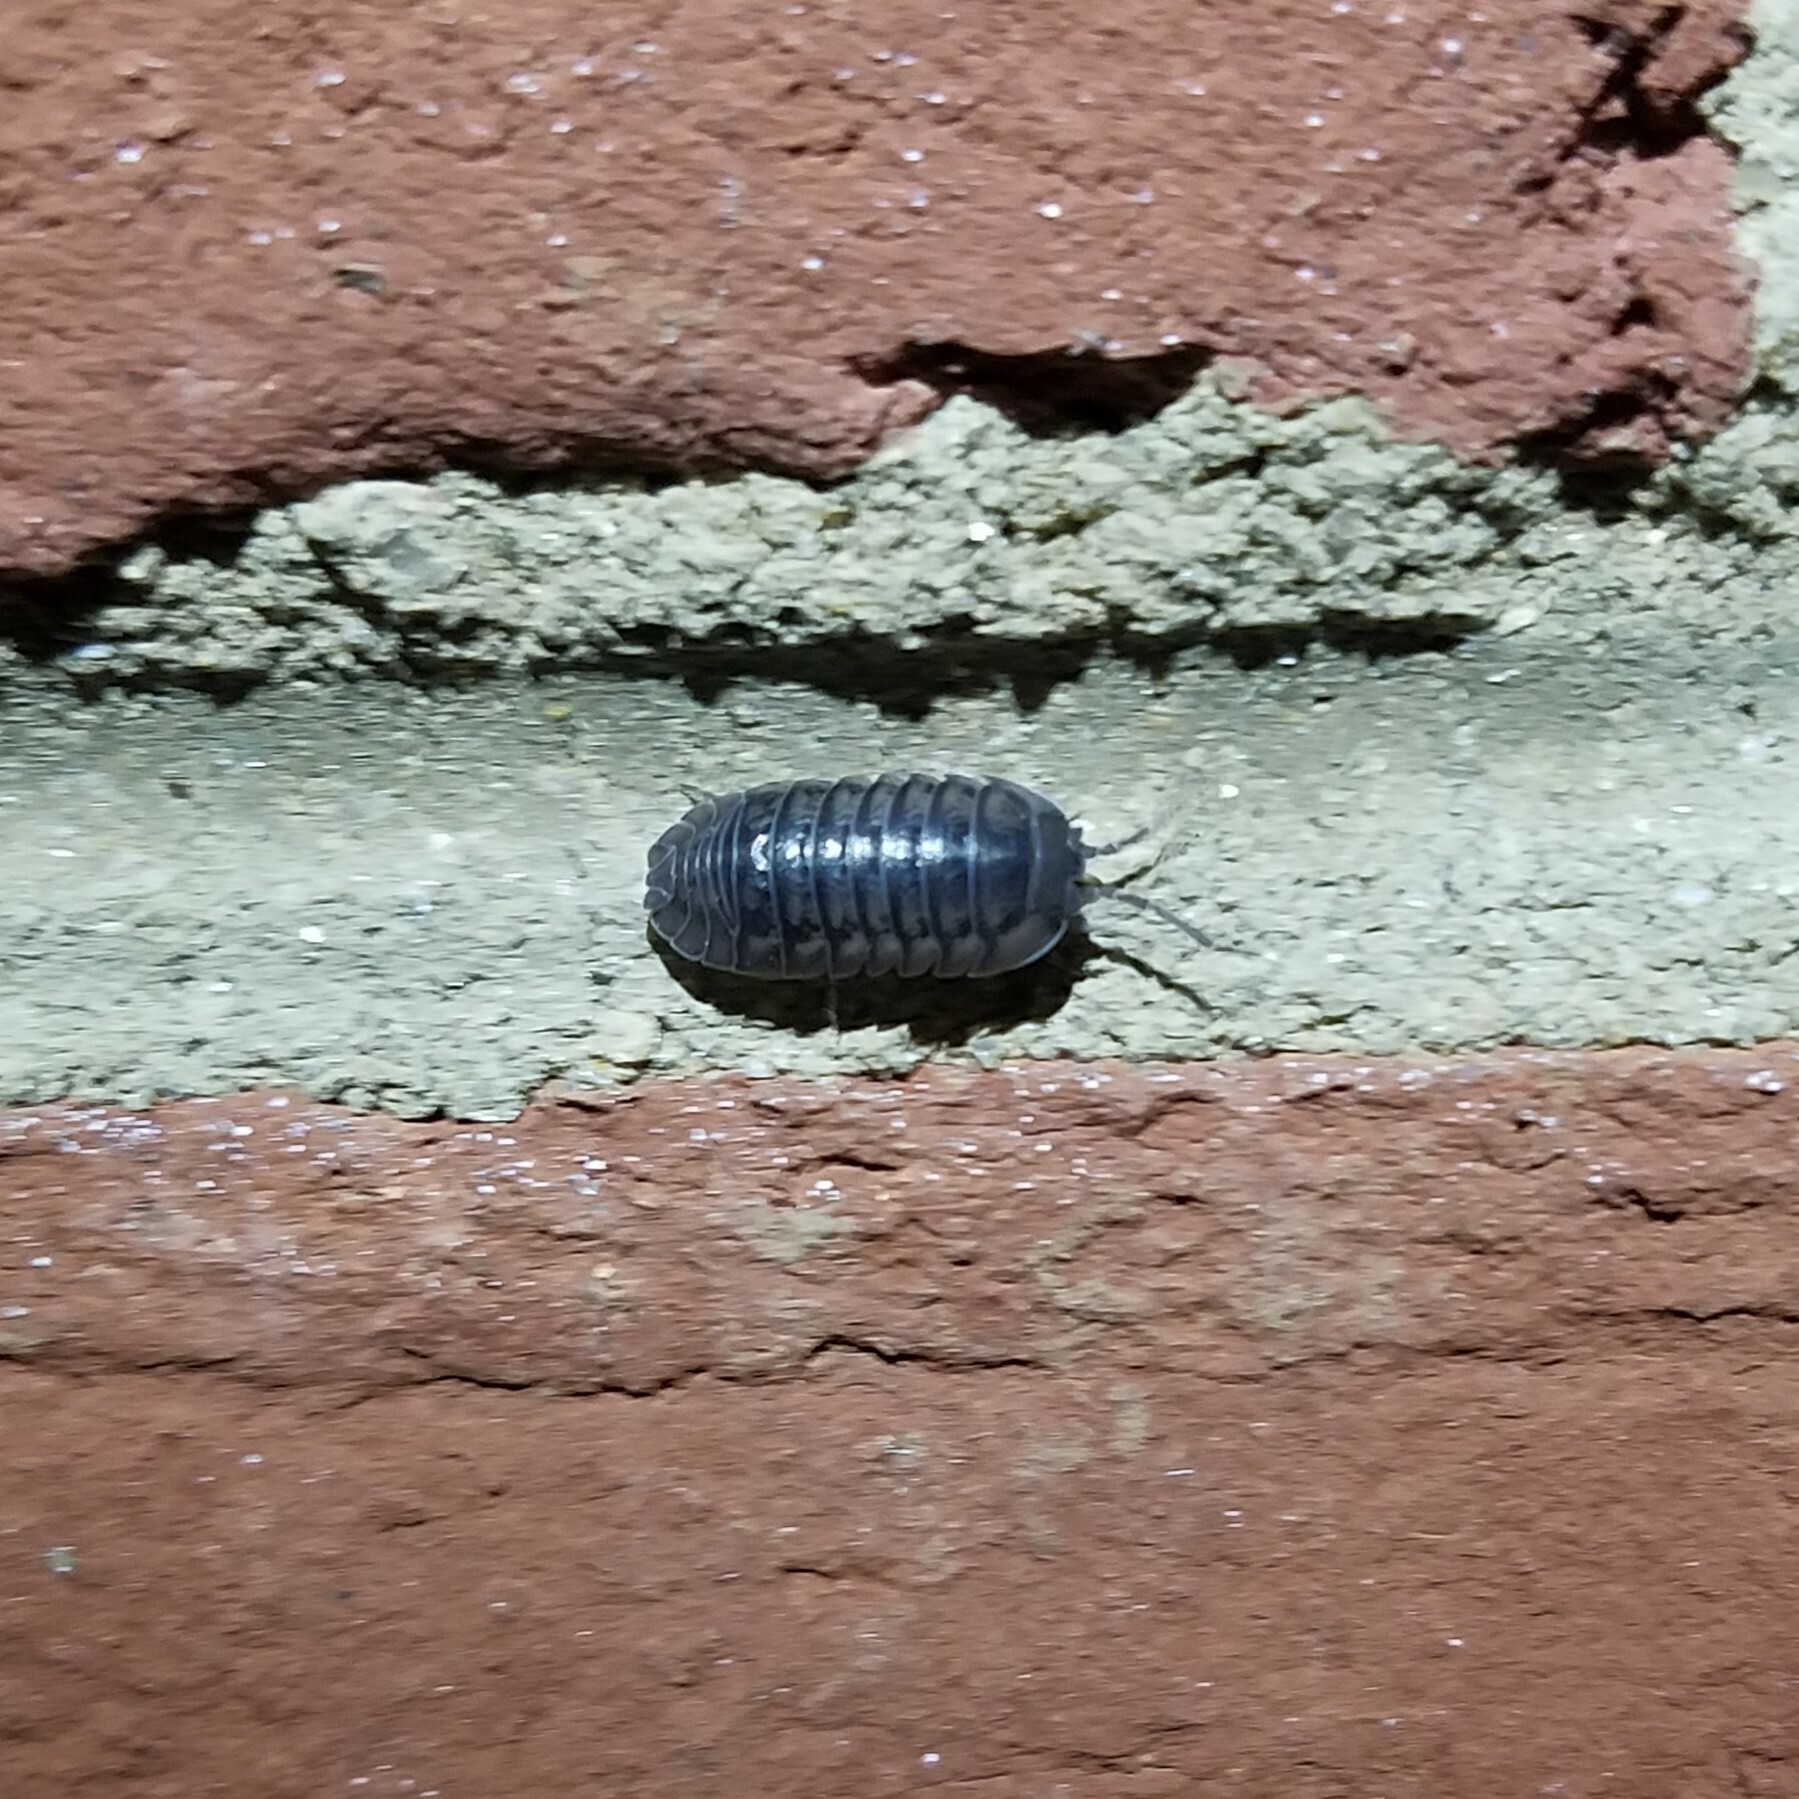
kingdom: Animalia
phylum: Arthropoda
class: Malacostraca
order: Isopoda
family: Armadillidiidae
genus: Armadillidium
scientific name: Armadillidium nasatum
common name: Isopod
